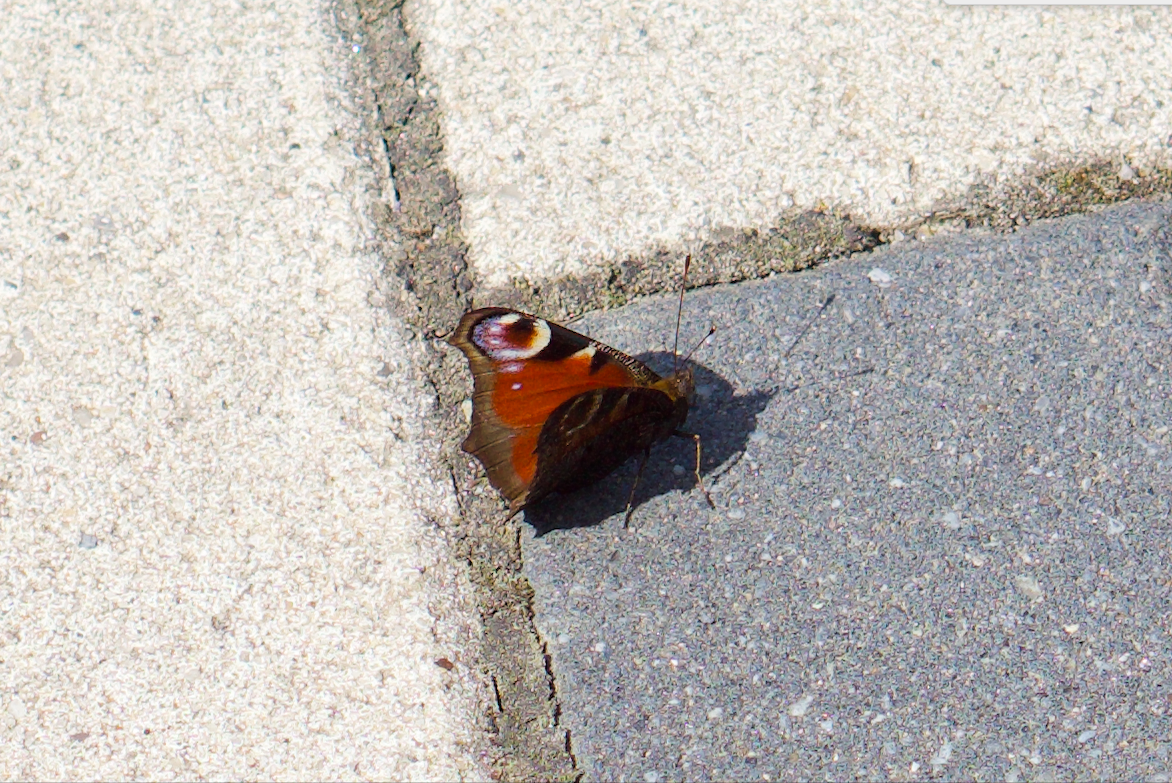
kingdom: Animalia
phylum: Arthropoda
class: Insecta
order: Lepidoptera
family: Nymphalidae
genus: Aglais
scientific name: Aglais io
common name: Peacock
